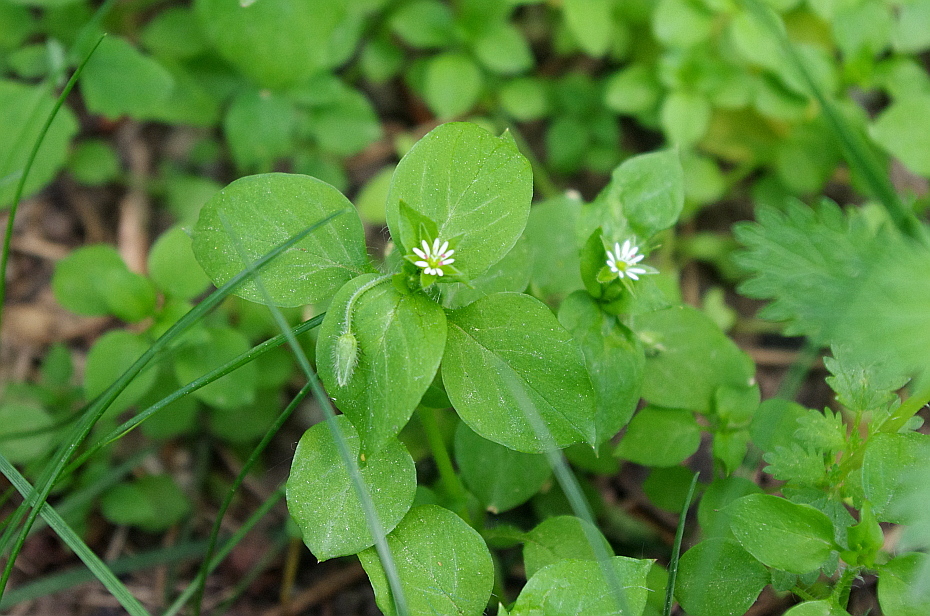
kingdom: Plantae
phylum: Tracheophyta
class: Magnoliopsida
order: Caryophyllales
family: Caryophyllaceae
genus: Stellaria
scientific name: Stellaria media
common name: Common chickweed
